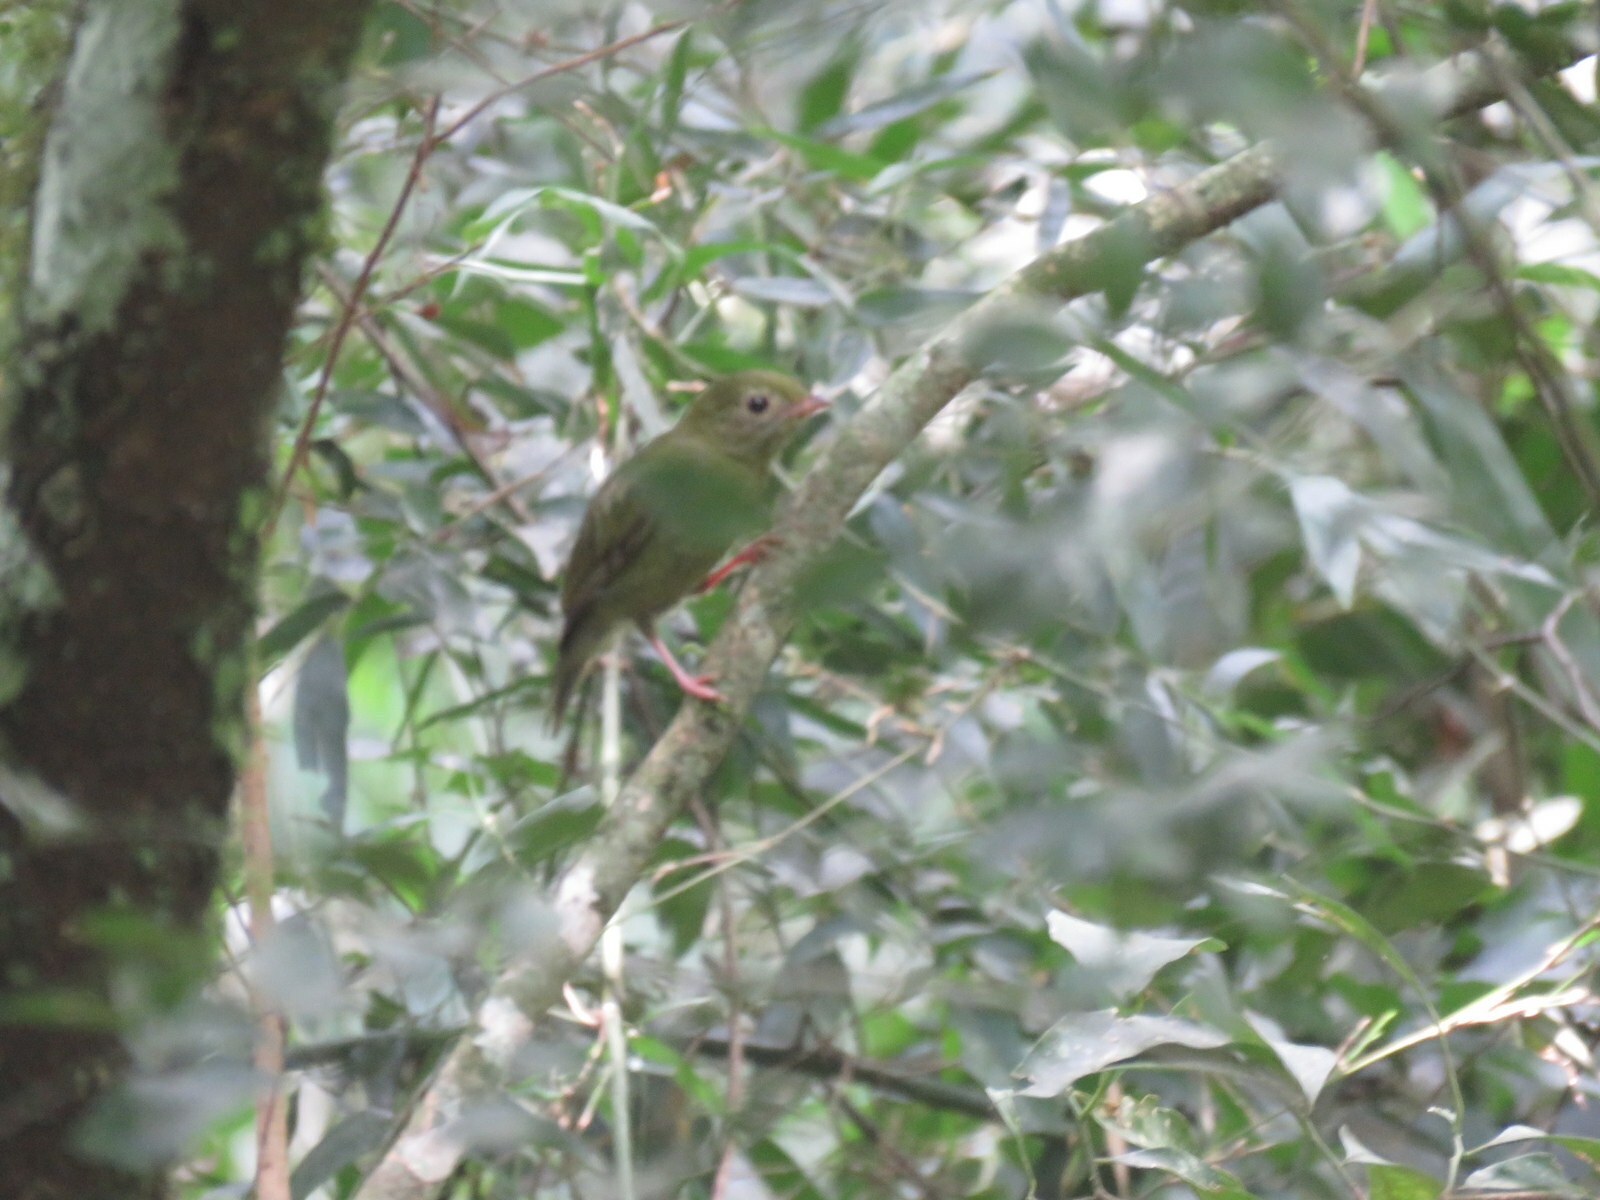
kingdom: Animalia
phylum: Chordata
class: Aves
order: Passeriformes
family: Pipridae
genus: Chiroxiphia
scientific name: Chiroxiphia caudata
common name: Blue manakin
